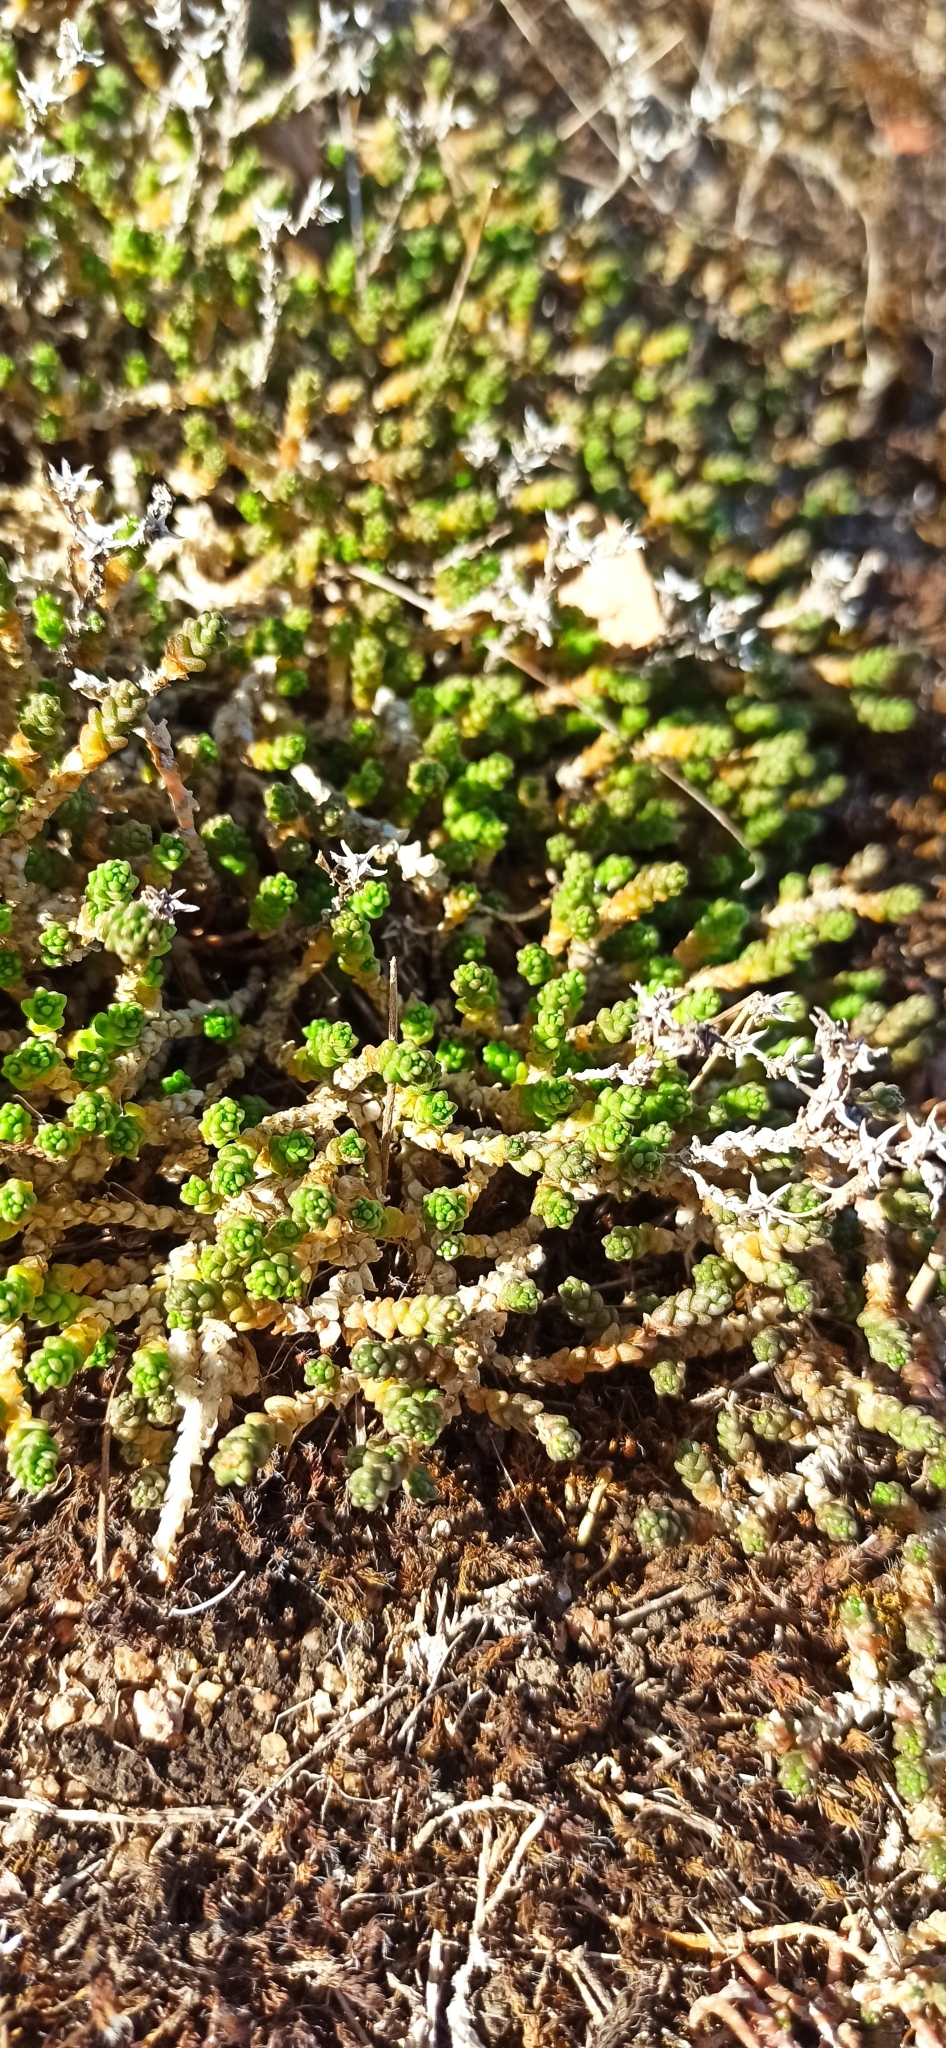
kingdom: Plantae
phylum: Tracheophyta
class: Magnoliopsida
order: Saxifragales
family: Crassulaceae
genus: Sedum
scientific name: Sedum acre
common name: Biting stonecrop
